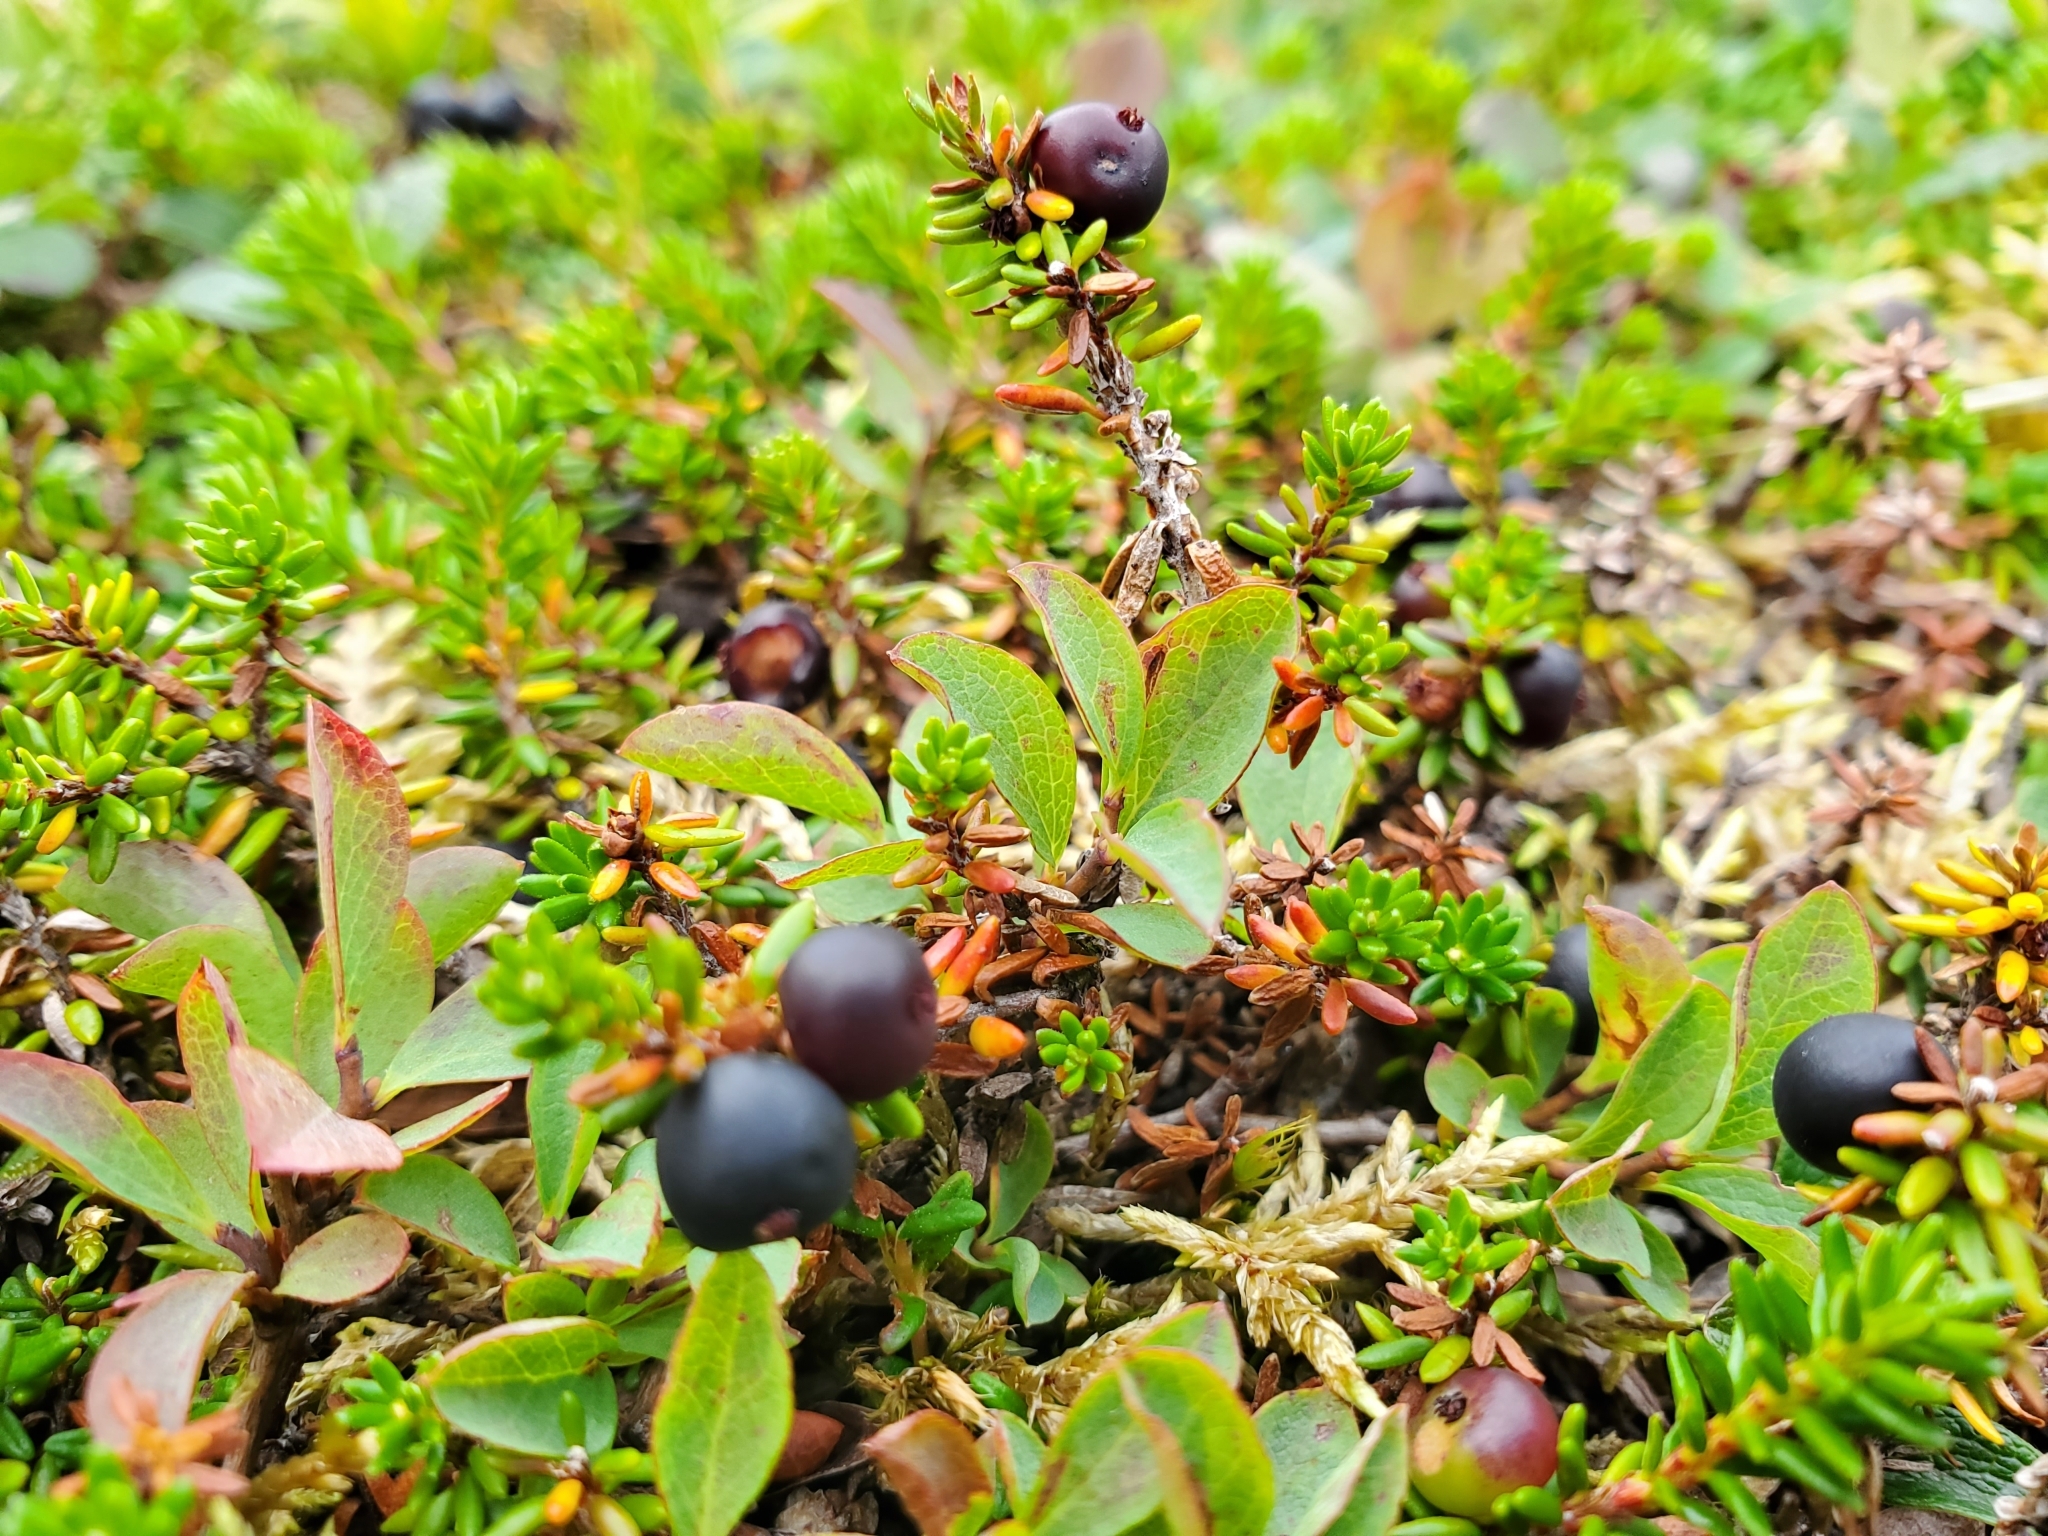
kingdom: Plantae
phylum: Tracheophyta
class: Magnoliopsida
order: Ericales
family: Ericaceae
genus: Empetrum
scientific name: Empetrum nigrum
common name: Black crowberry
